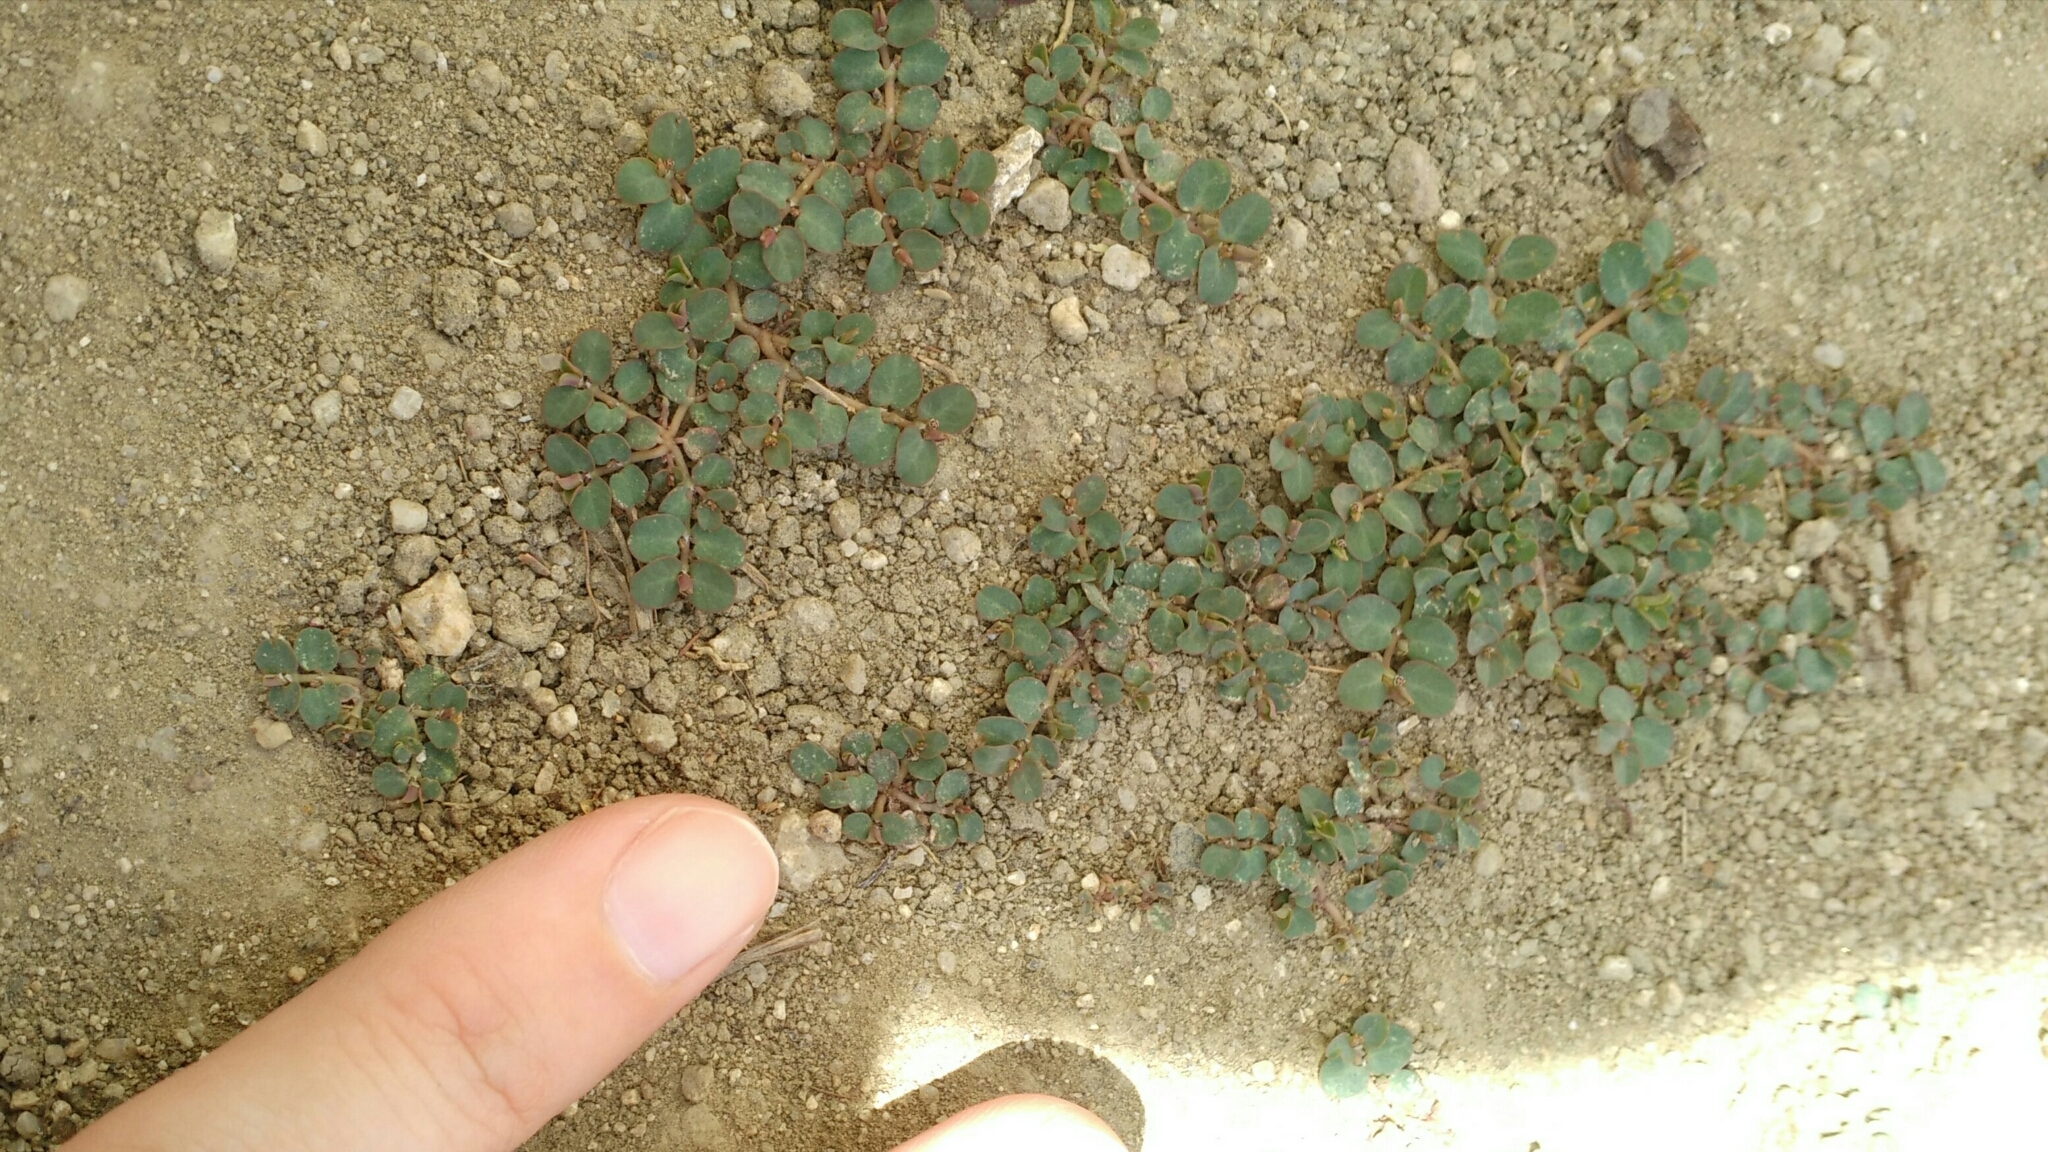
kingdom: Plantae
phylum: Tracheophyta
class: Magnoliopsida
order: Malpighiales
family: Euphorbiaceae
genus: Euphorbia
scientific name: Euphorbia serpens
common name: Matted sandmat
